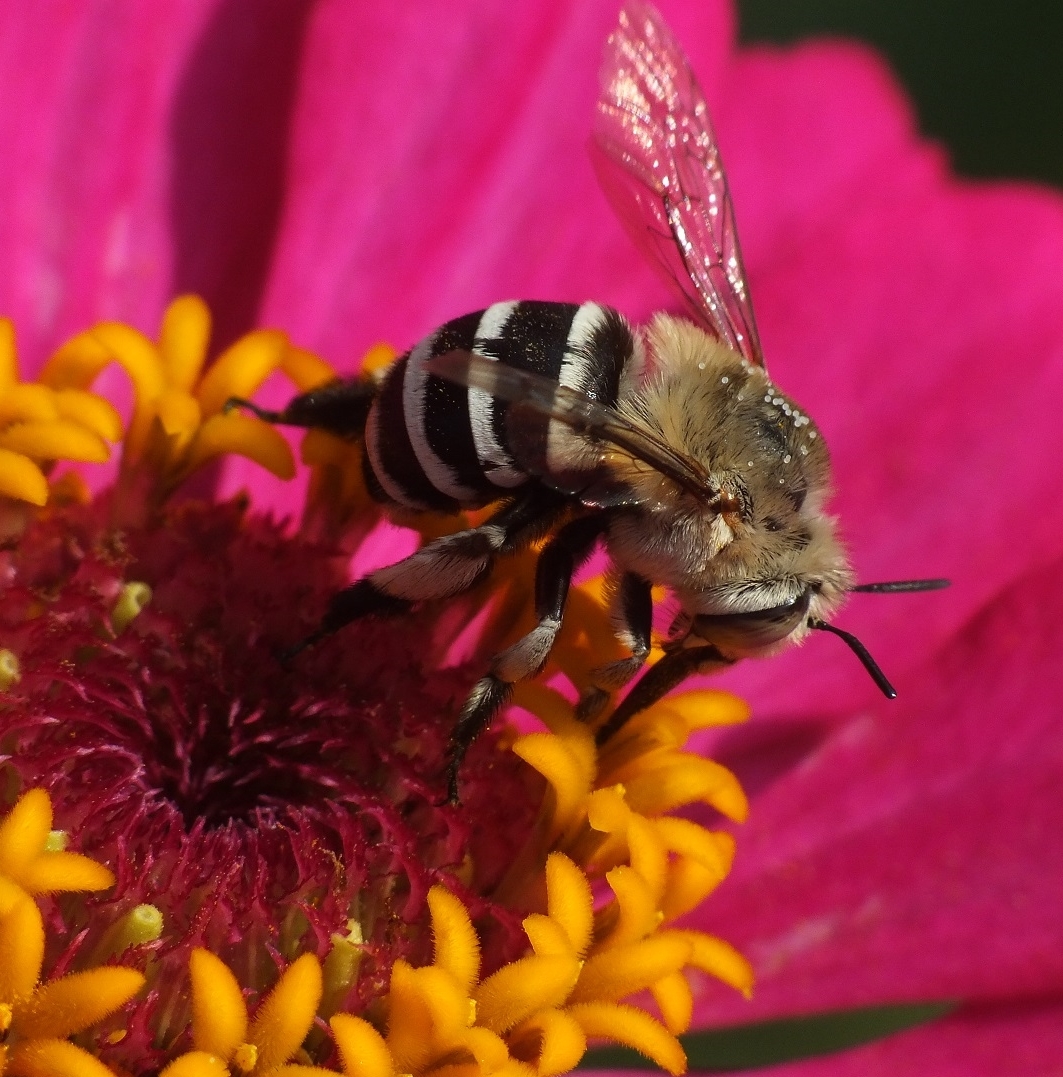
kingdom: Animalia
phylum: Arthropoda
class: Insecta
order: Hymenoptera
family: Apidae
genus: Amegilla
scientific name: Amegilla quadrifasciata
